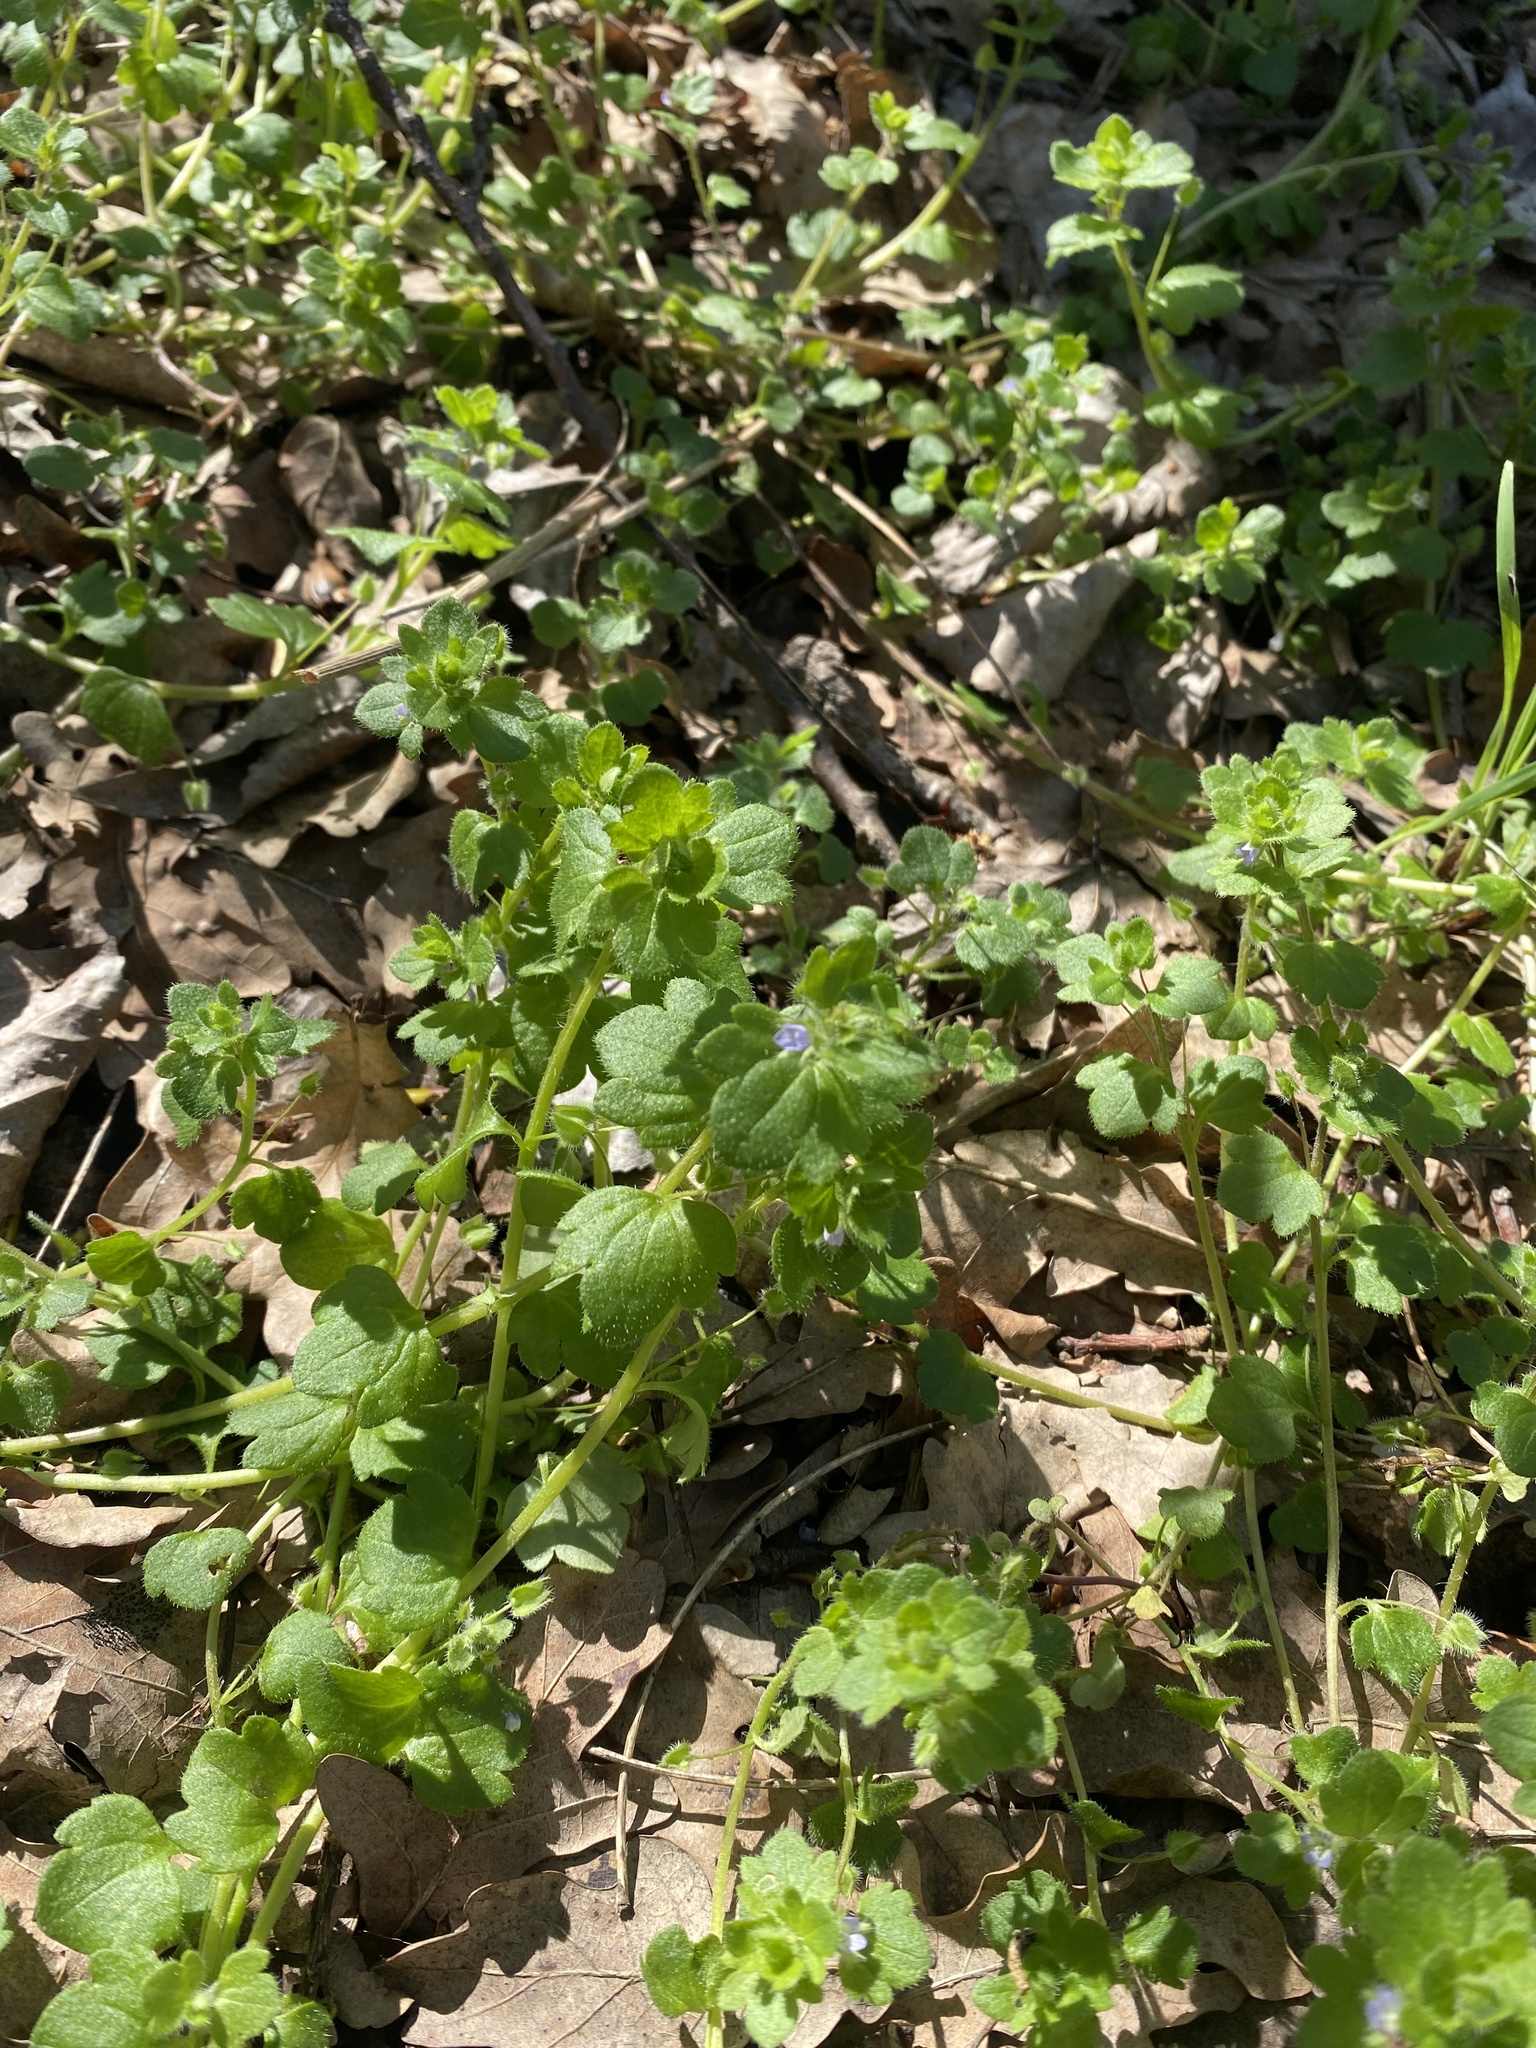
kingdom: Plantae
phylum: Tracheophyta
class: Magnoliopsida
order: Lamiales
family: Plantaginaceae
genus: Veronica
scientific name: Veronica hederifolia
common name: Ivy-leaved speedwell
